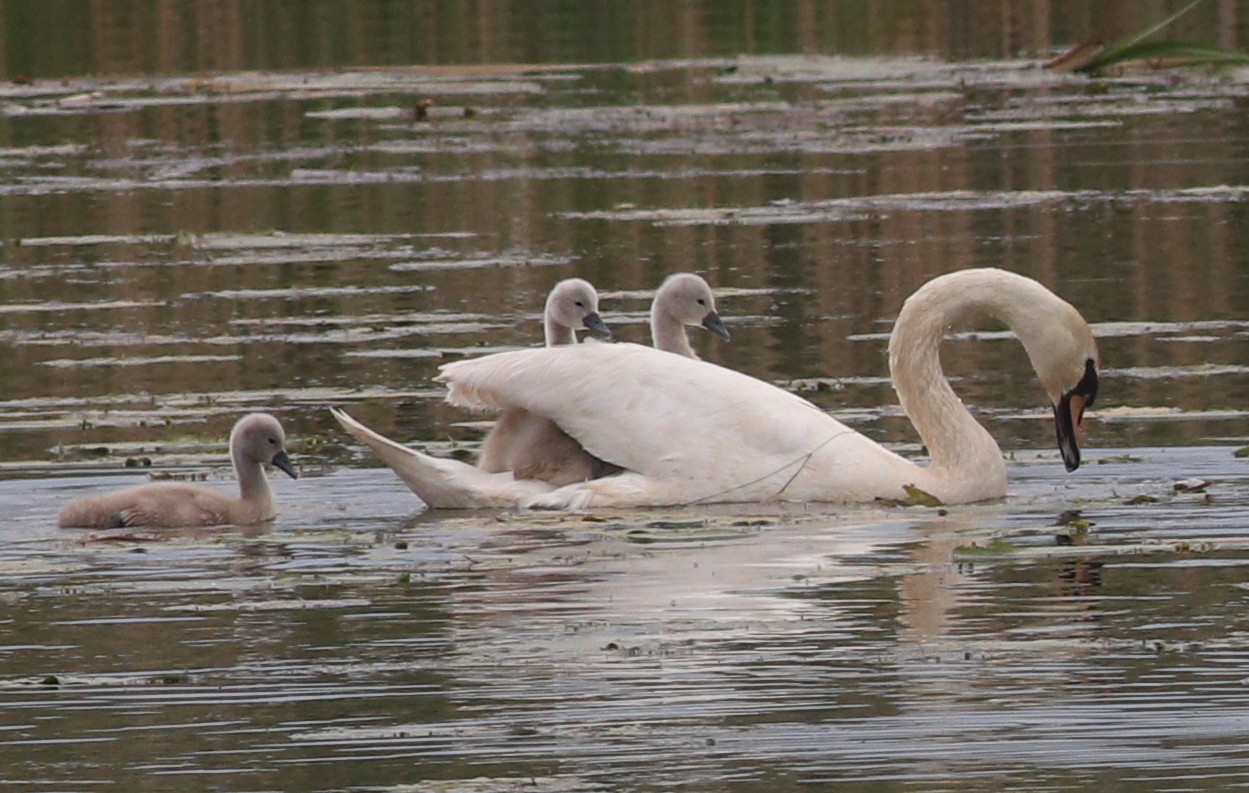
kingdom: Animalia
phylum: Chordata
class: Aves
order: Anseriformes
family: Anatidae
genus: Cygnus
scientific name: Cygnus olor
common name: Mute swan
